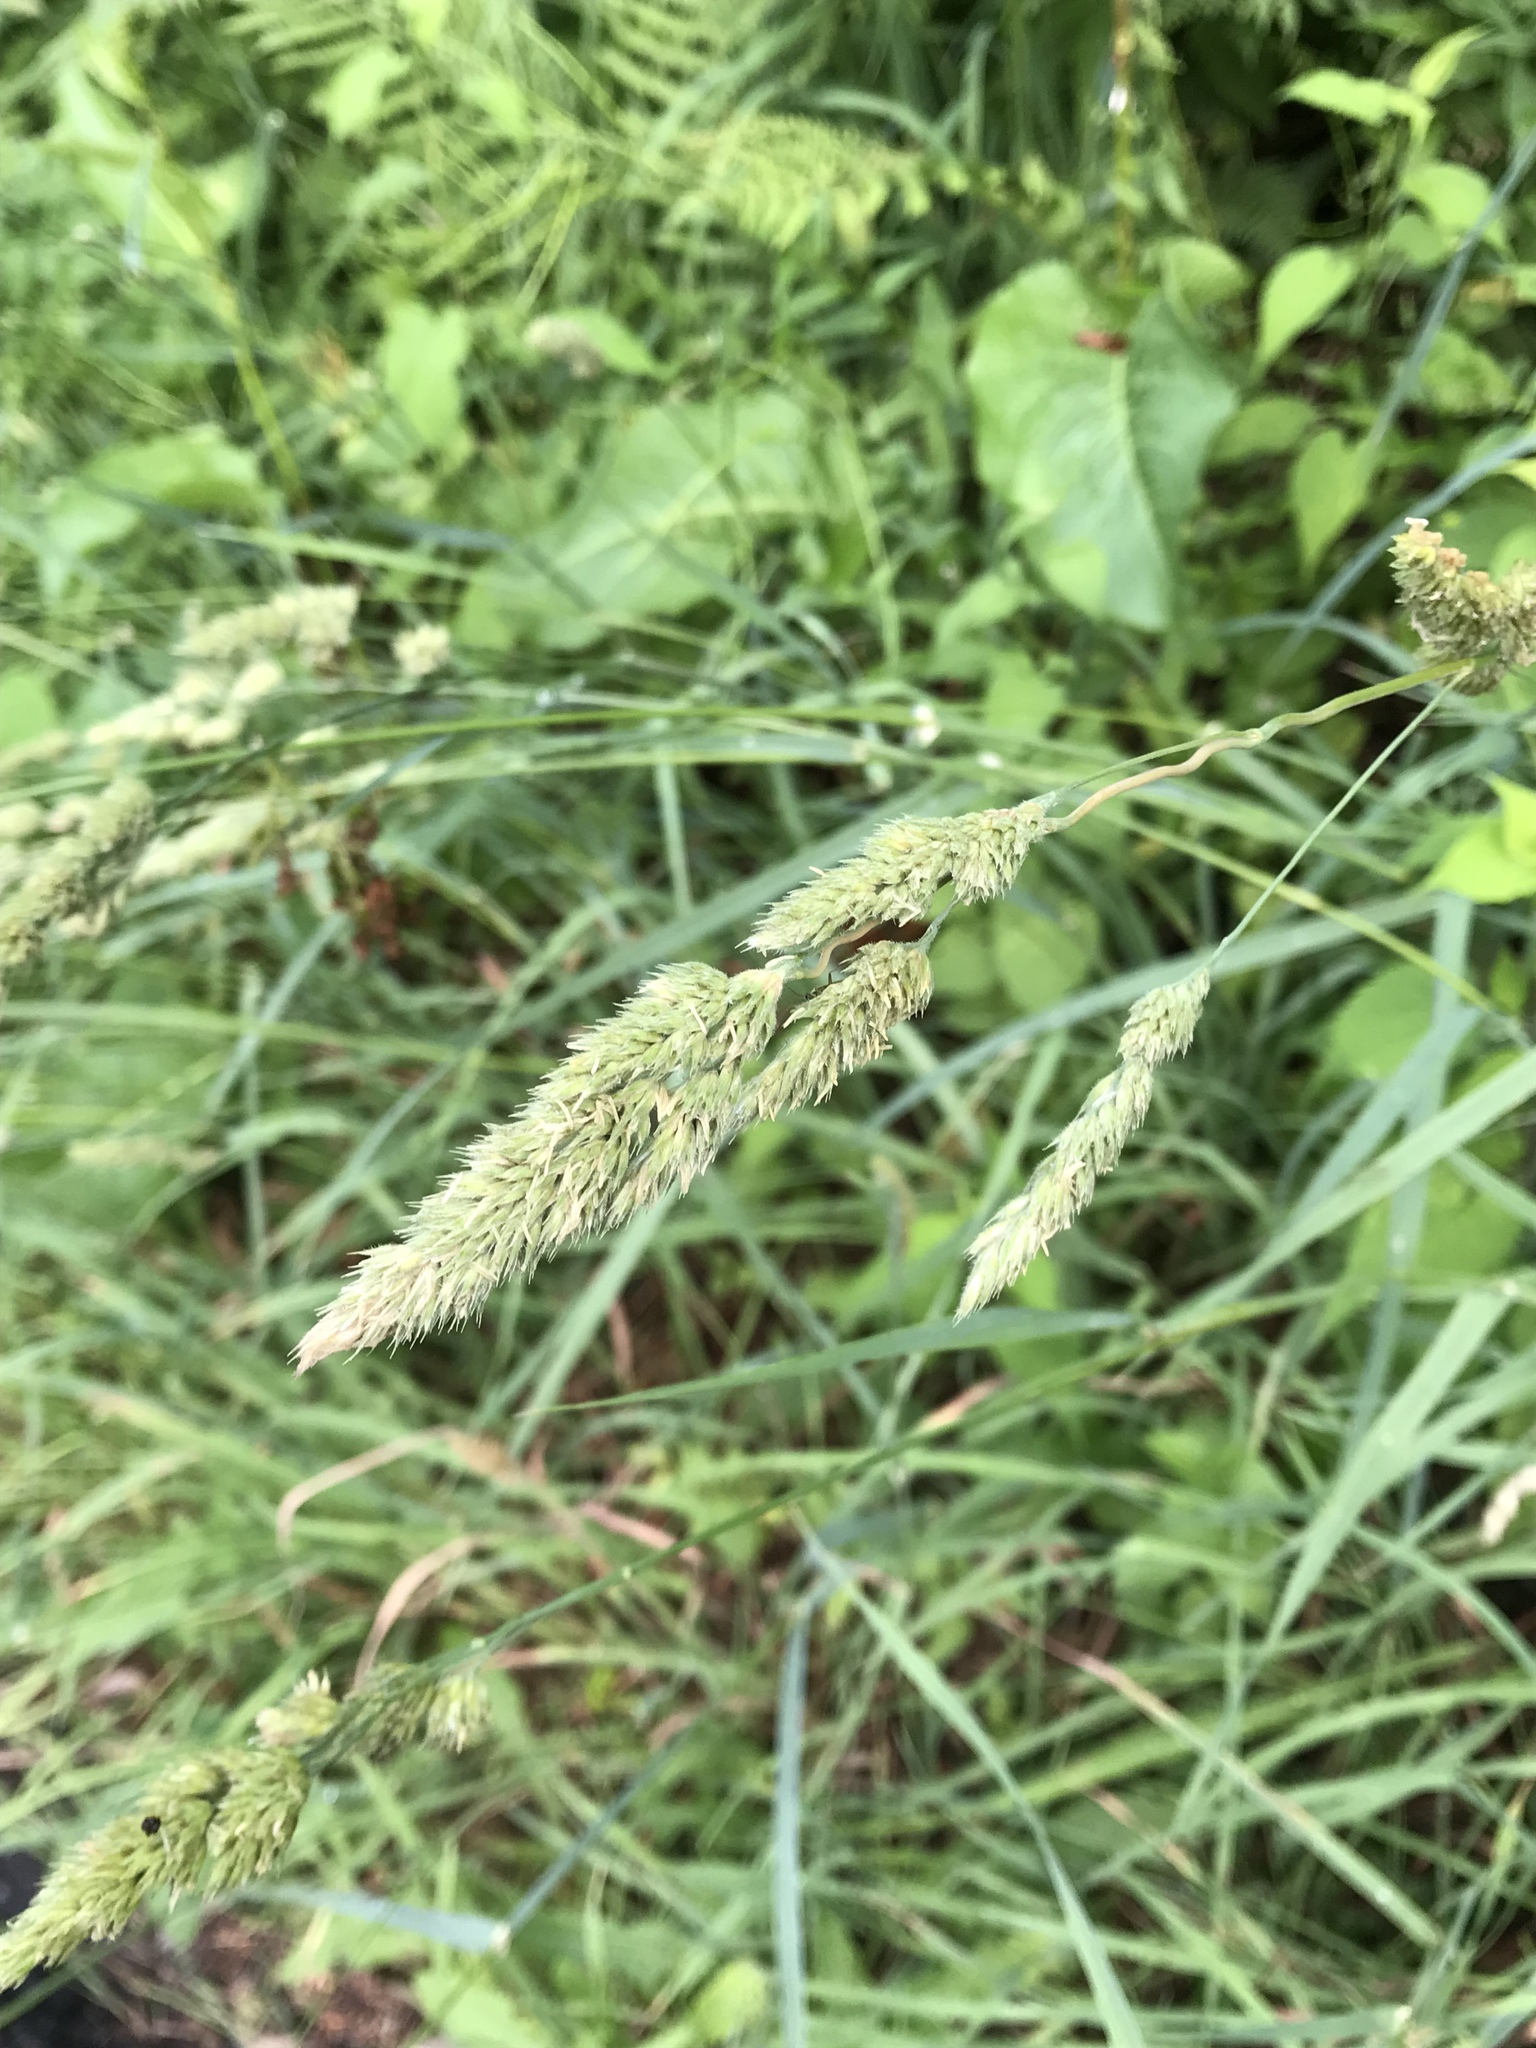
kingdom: Plantae
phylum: Tracheophyta
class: Liliopsida
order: Poales
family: Poaceae
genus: Dactylis
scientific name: Dactylis glomerata
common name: Orchardgrass
